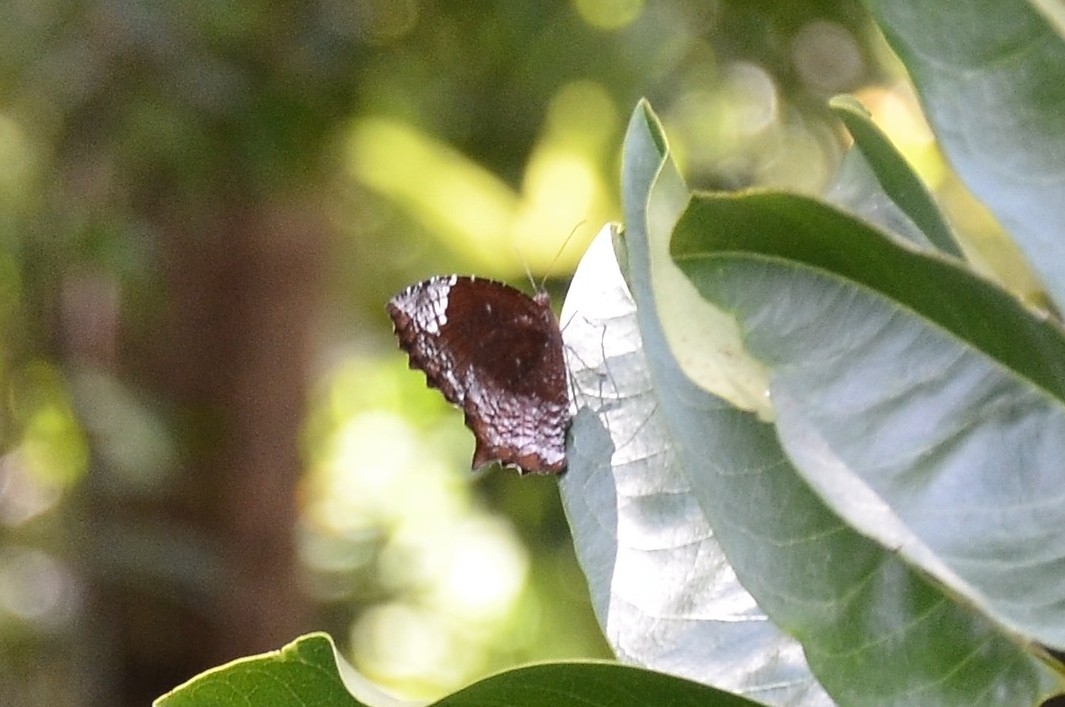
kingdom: Animalia
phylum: Arthropoda
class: Insecta
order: Lepidoptera
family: Nymphalidae
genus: Elymnias
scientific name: Elymnias caudata
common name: Tailed palmfly
